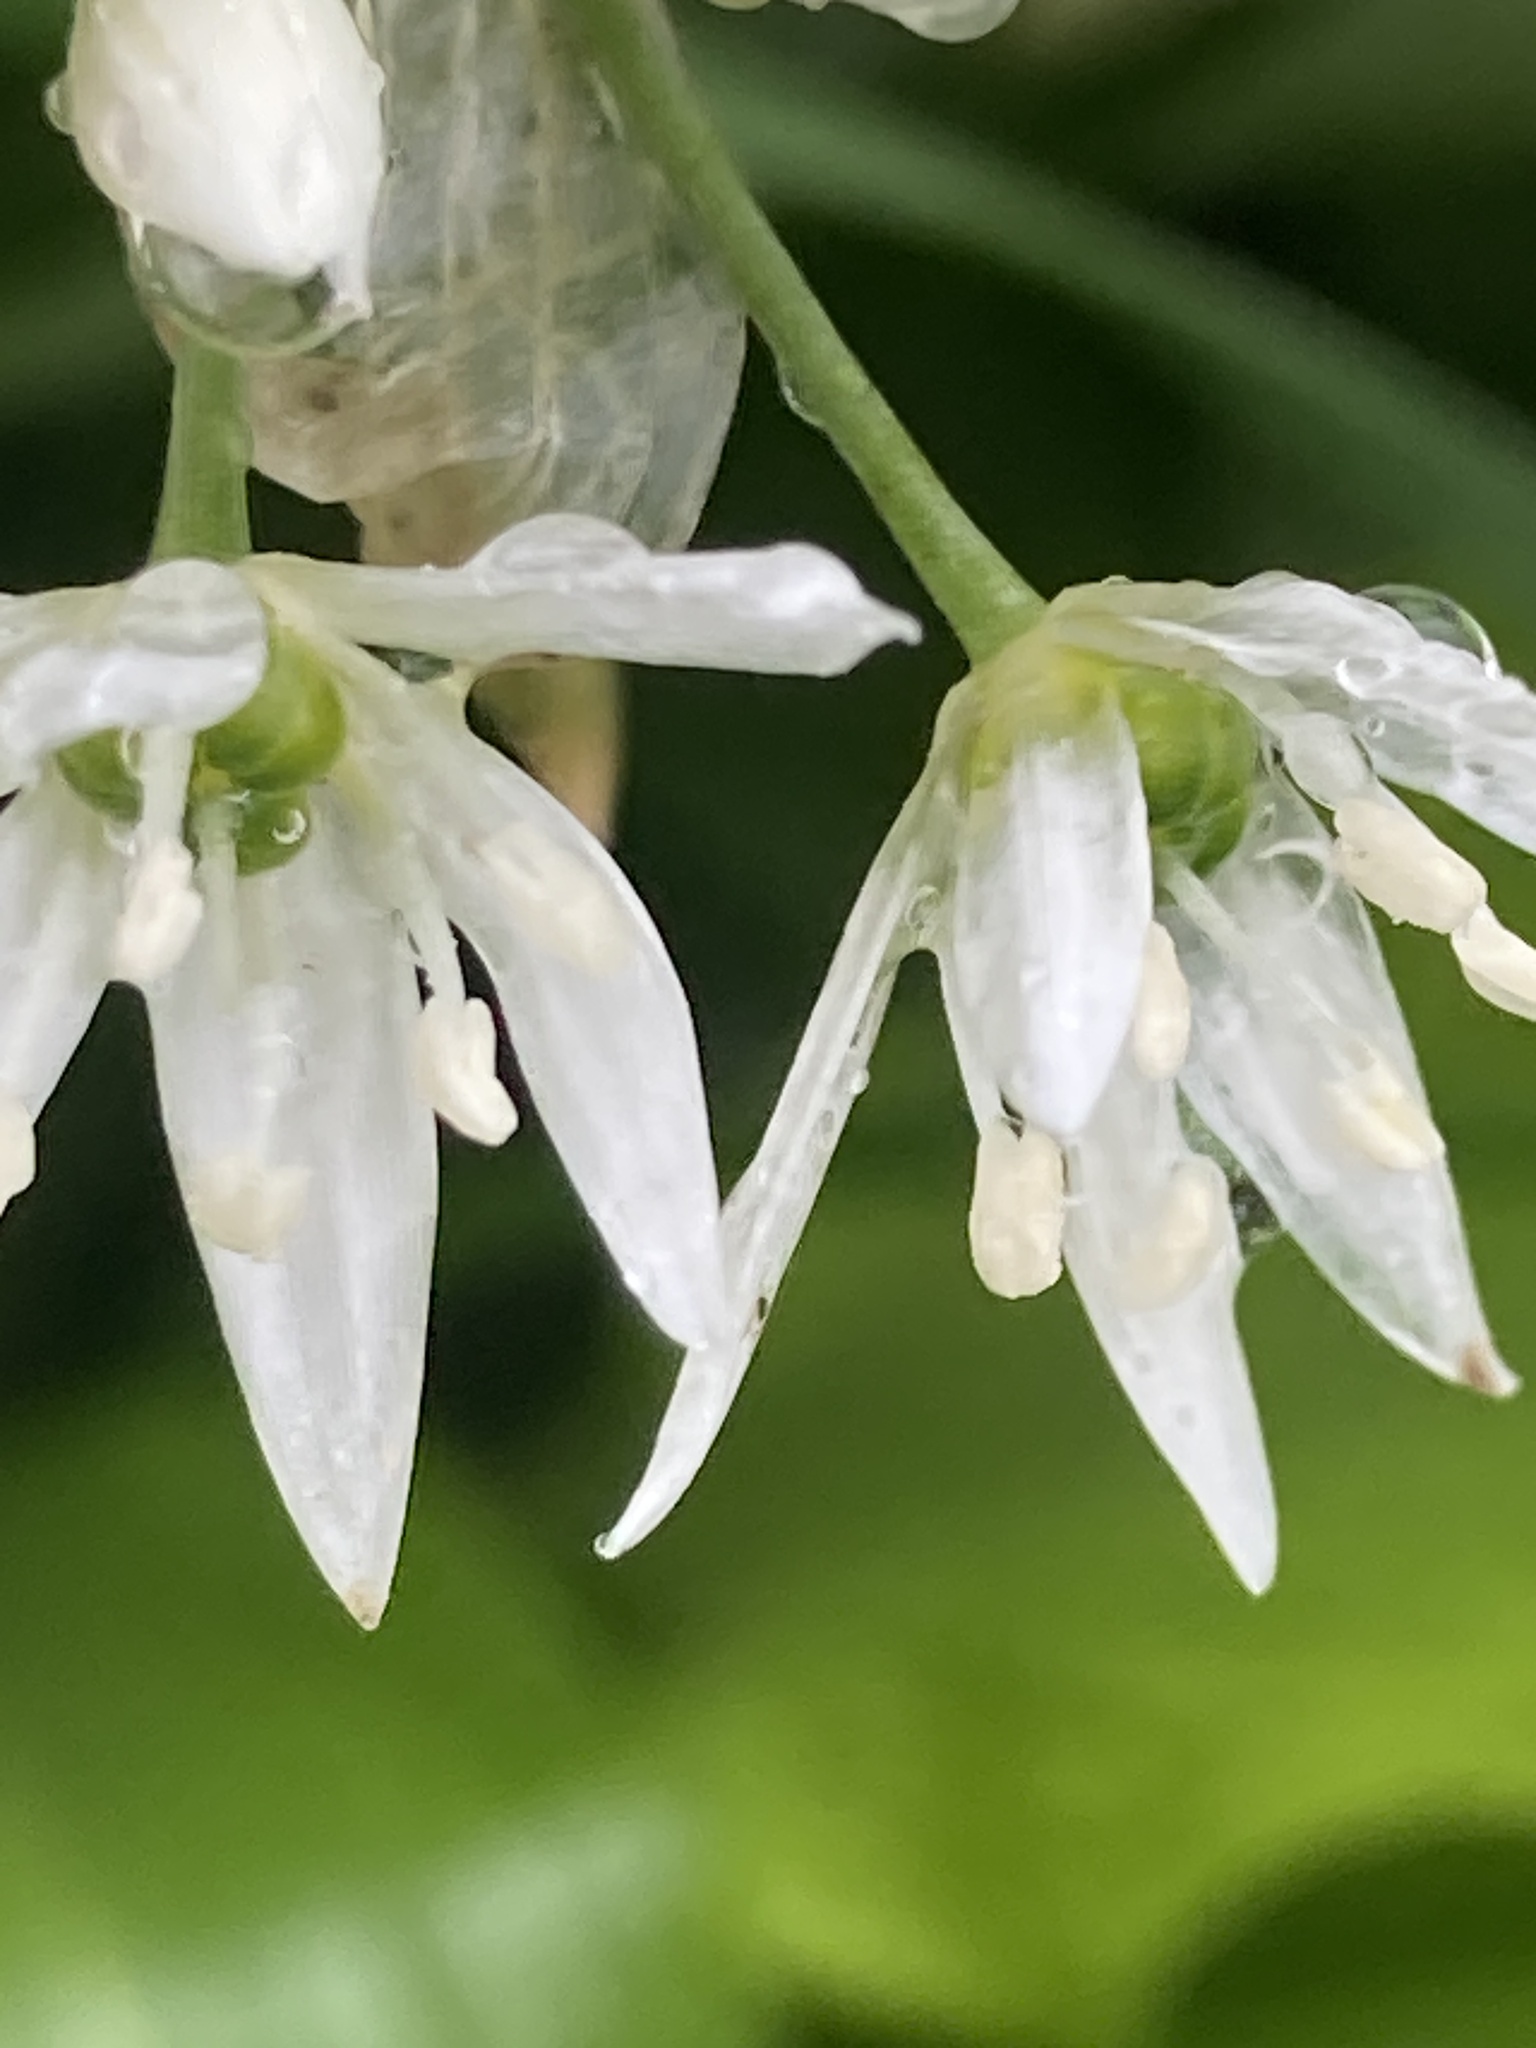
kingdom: Plantae
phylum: Tracheophyta
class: Liliopsida
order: Asparagales
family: Amaryllidaceae
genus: Allium
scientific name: Allium ursinum
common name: Ramsons
